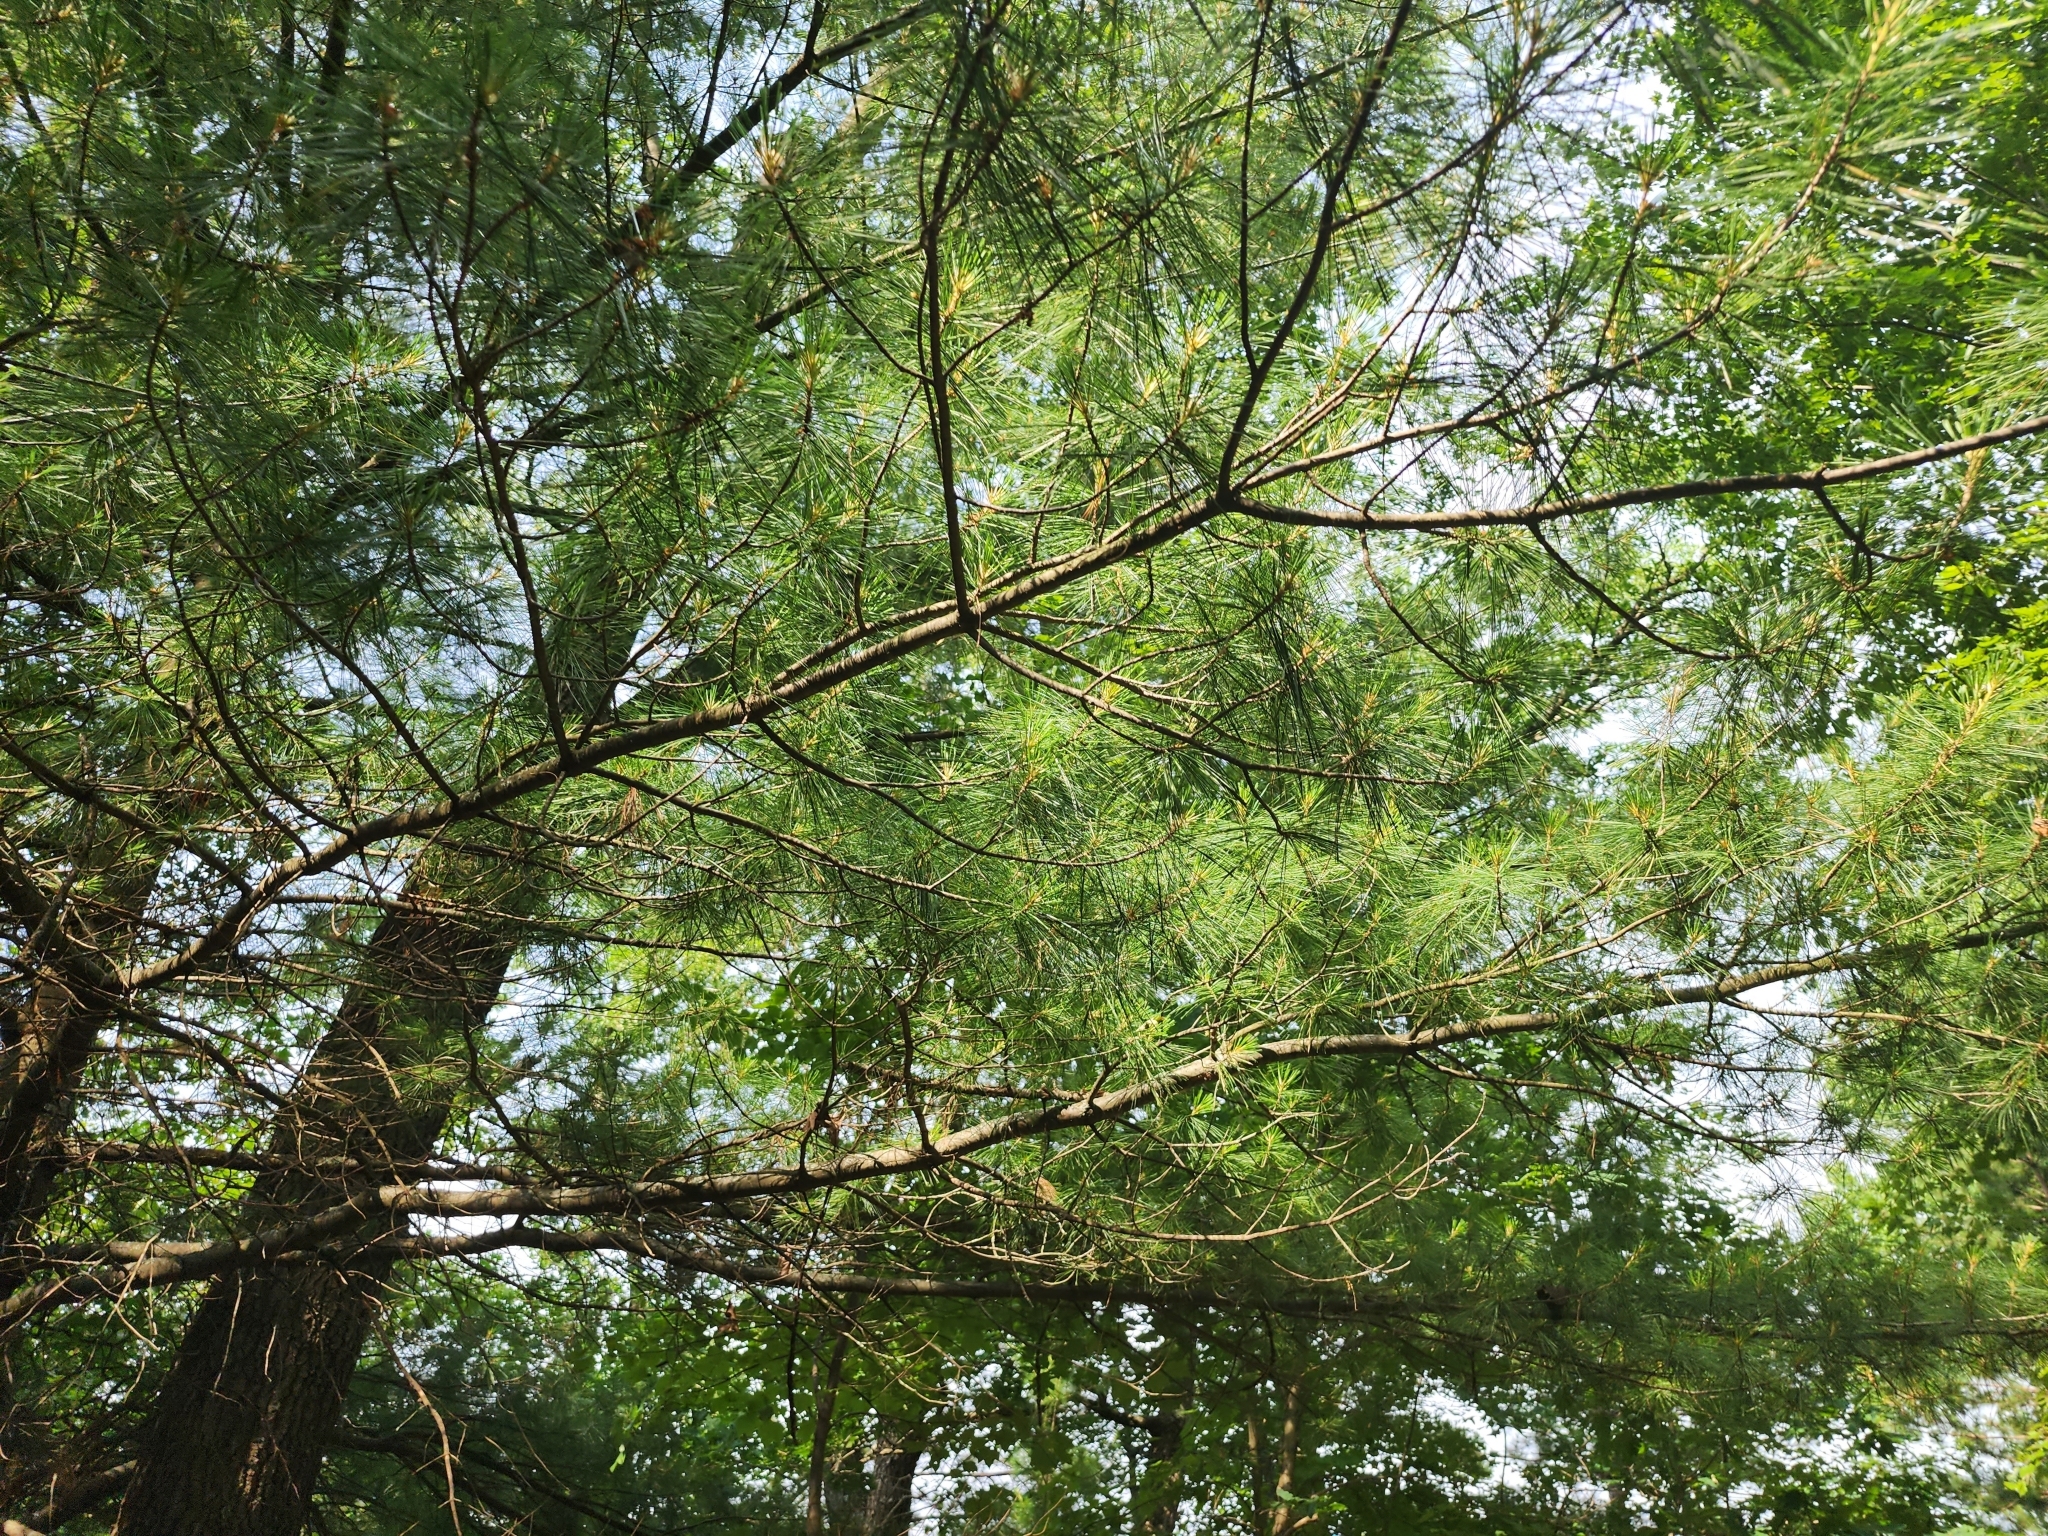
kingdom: Plantae
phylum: Tracheophyta
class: Pinopsida
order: Pinales
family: Pinaceae
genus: Pinus
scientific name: Pinus strobus
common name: Weymouth pine
